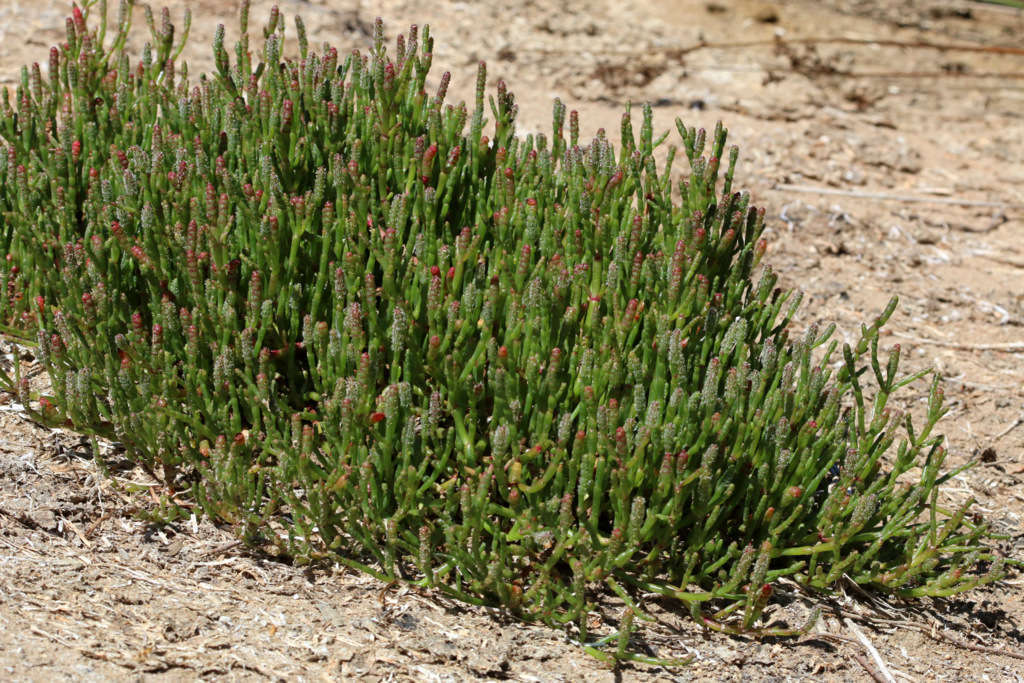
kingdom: Plantae
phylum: Tracheophyta
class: Magnoliopsida
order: Caryophyllales
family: Amaranthaceae
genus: Salicornia
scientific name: Salicornia quinqueflora
